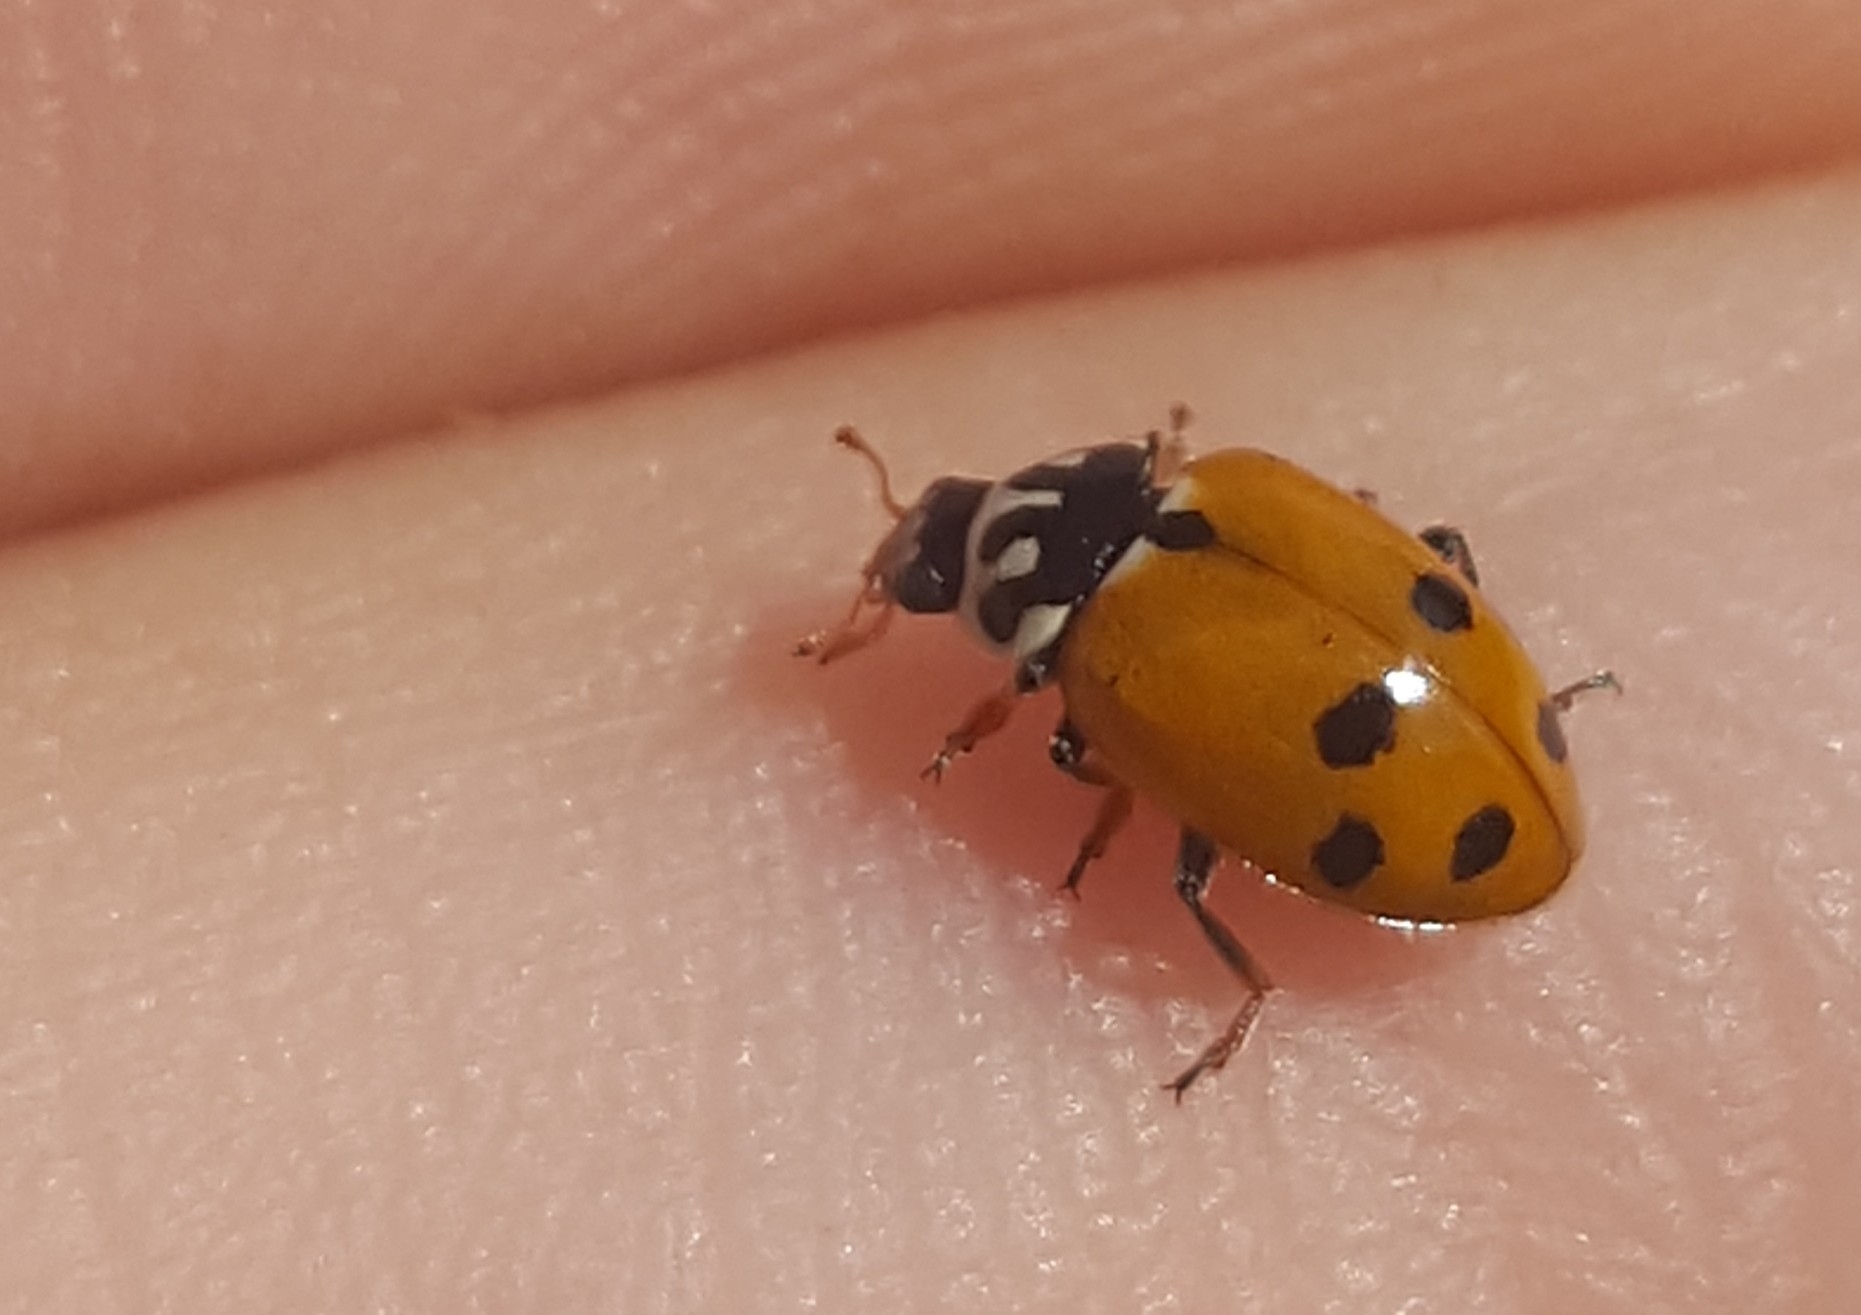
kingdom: Animalia
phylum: Arthropoda
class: Insecta
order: Coleoptera
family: Coccinellidae
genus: Hippodamia
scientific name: Hippodamia variegata
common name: Ladybird beetle
